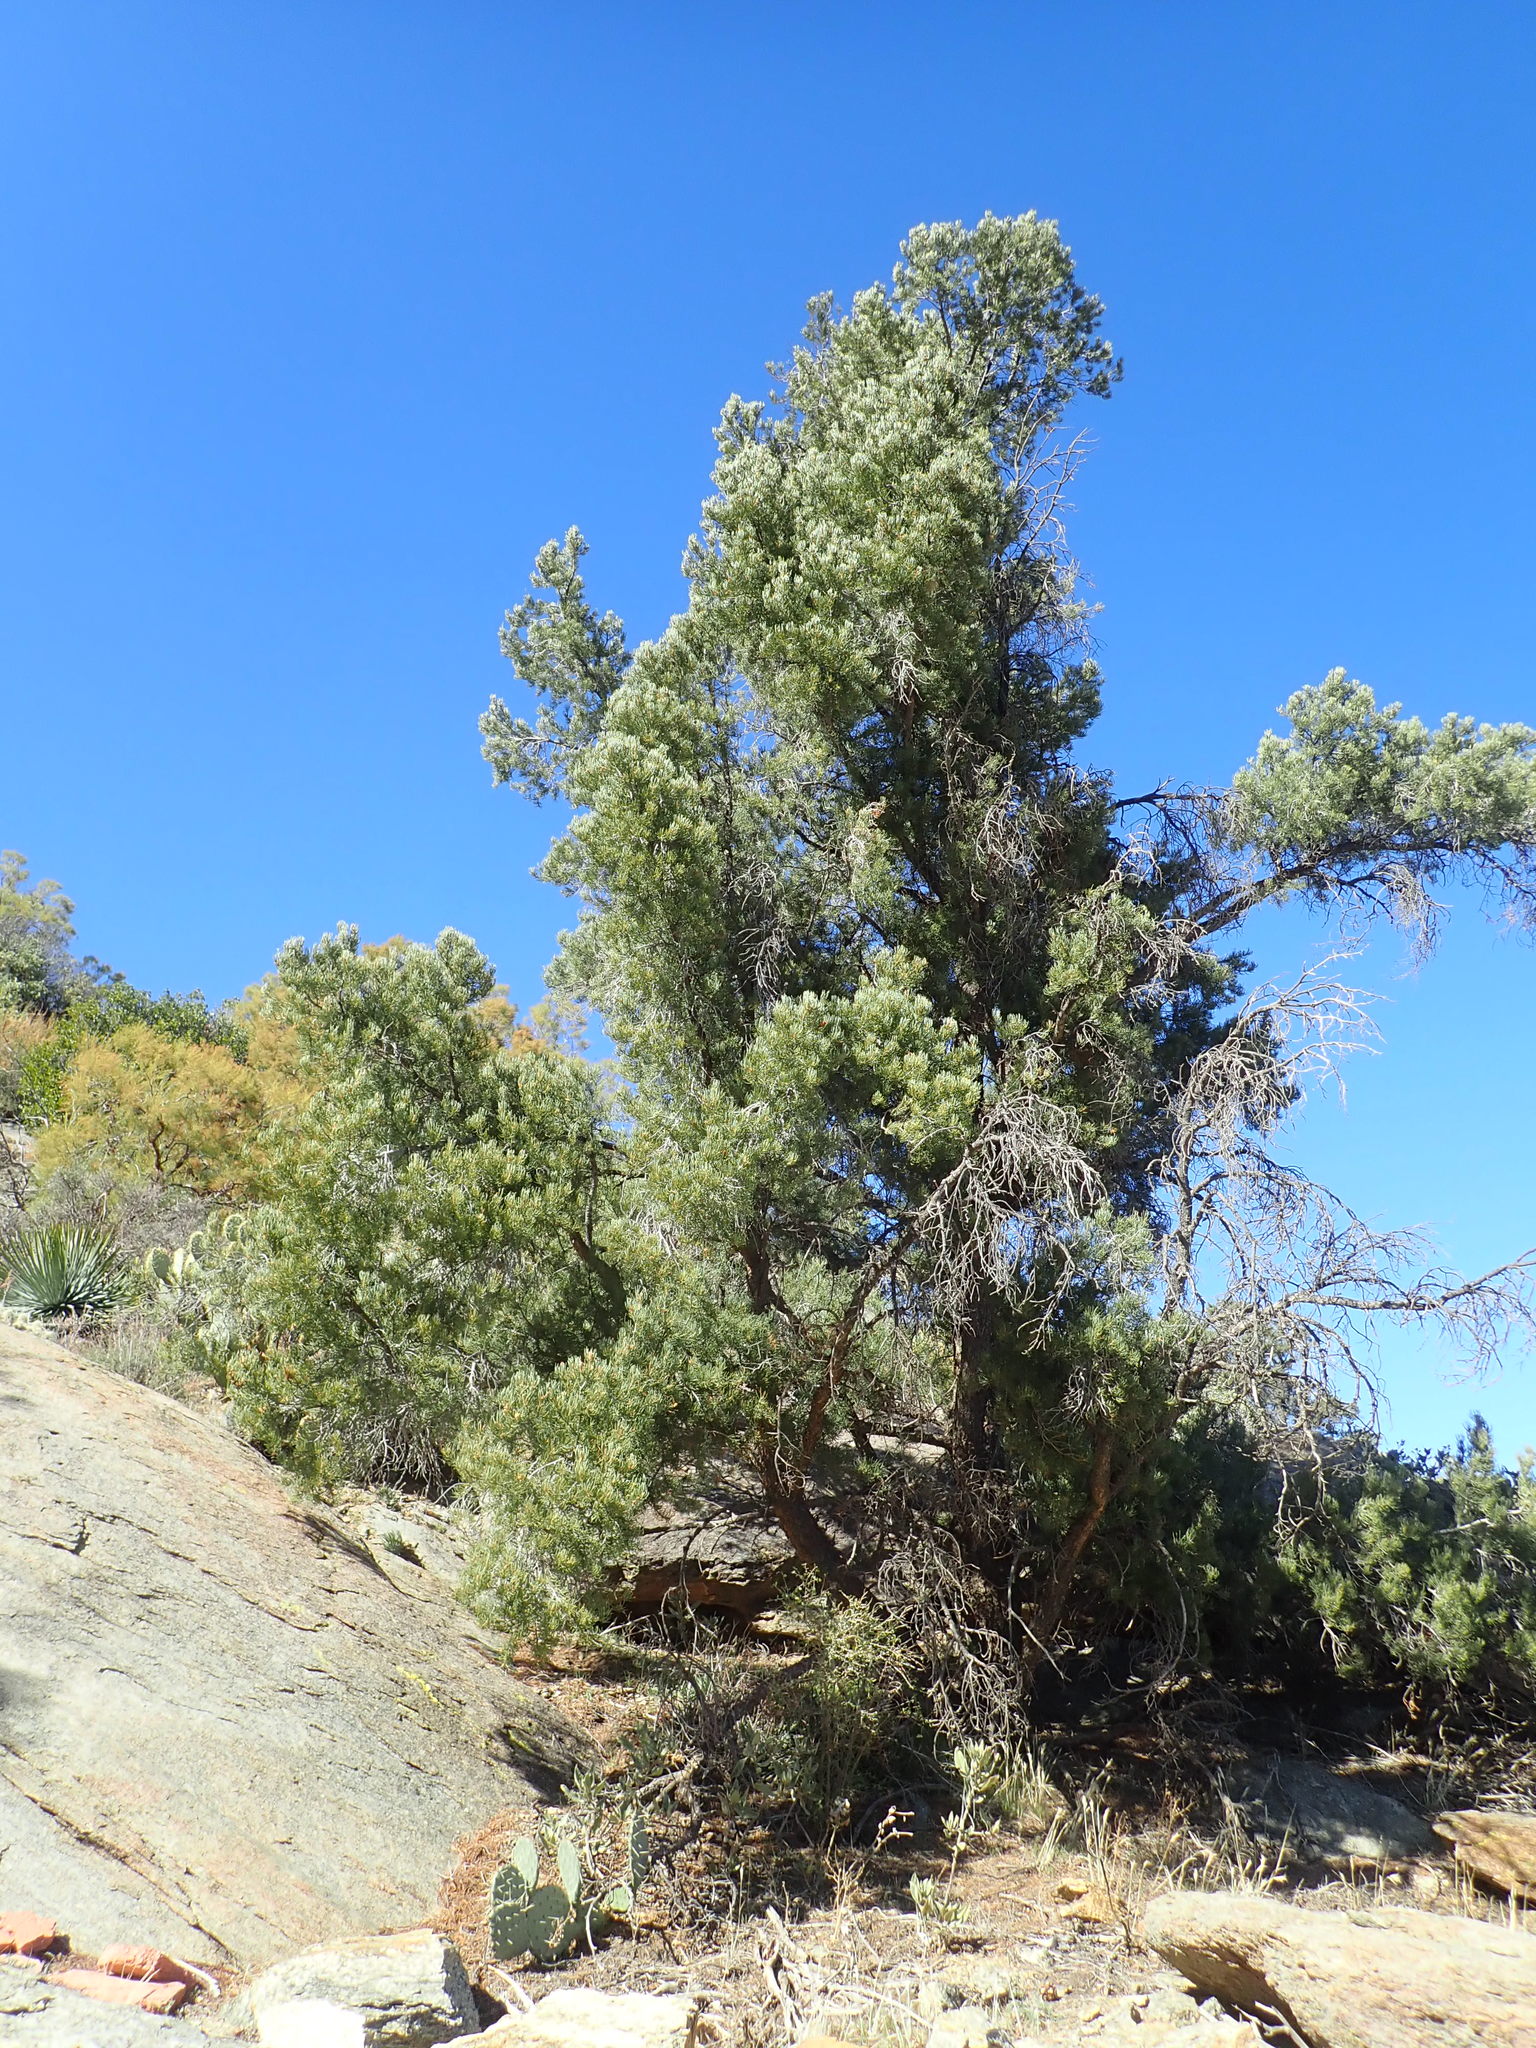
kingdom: Plantae
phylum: Tracheophyta
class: Pinopsida
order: Pinales
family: Pinaceae
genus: Pinus
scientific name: Pinus monophylla
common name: One-leaved nut pine
